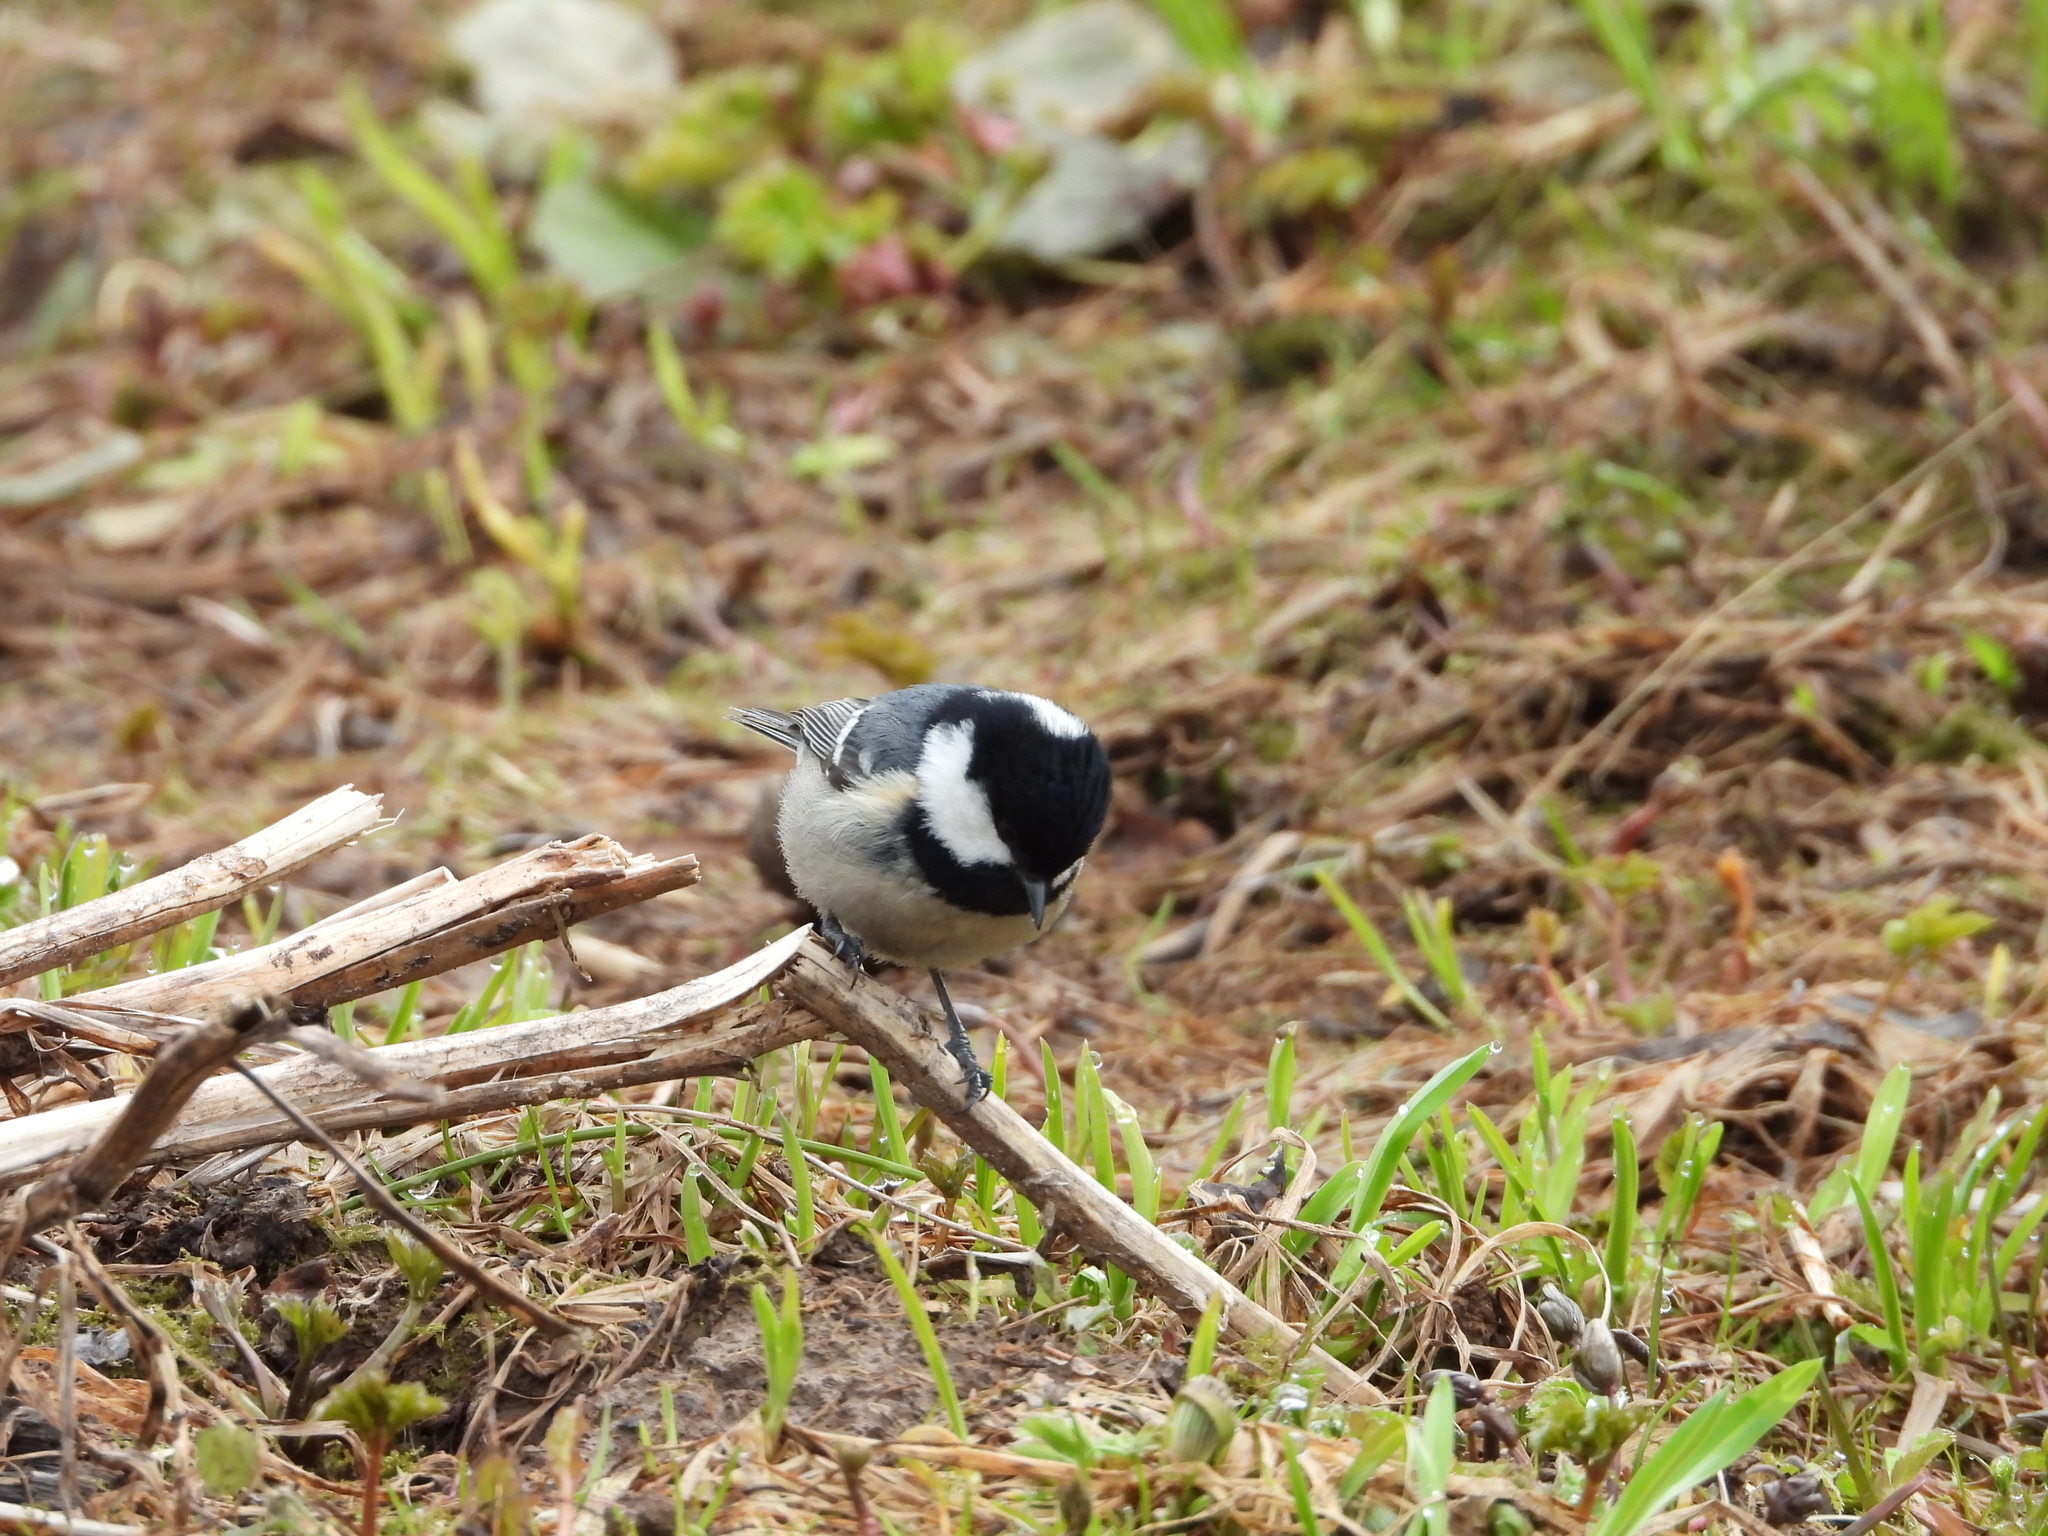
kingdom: Animalia
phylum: Chordata
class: Aves
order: Passeriformes
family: Paridae
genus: Periparus
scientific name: Periparus ater
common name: Coal tit
